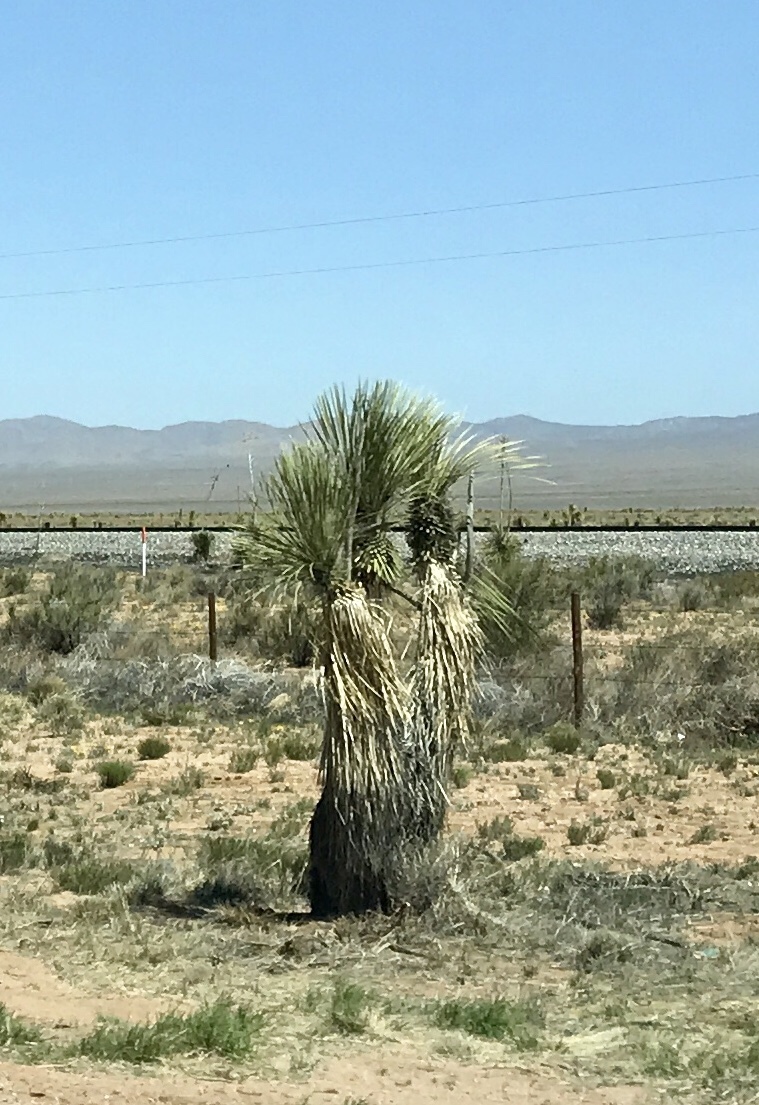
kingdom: Plantae
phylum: Tracheophyta
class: Liliopsida
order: Asparagales
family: Asparagaceae
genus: Yucca
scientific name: Yucca elata
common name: Palmella
